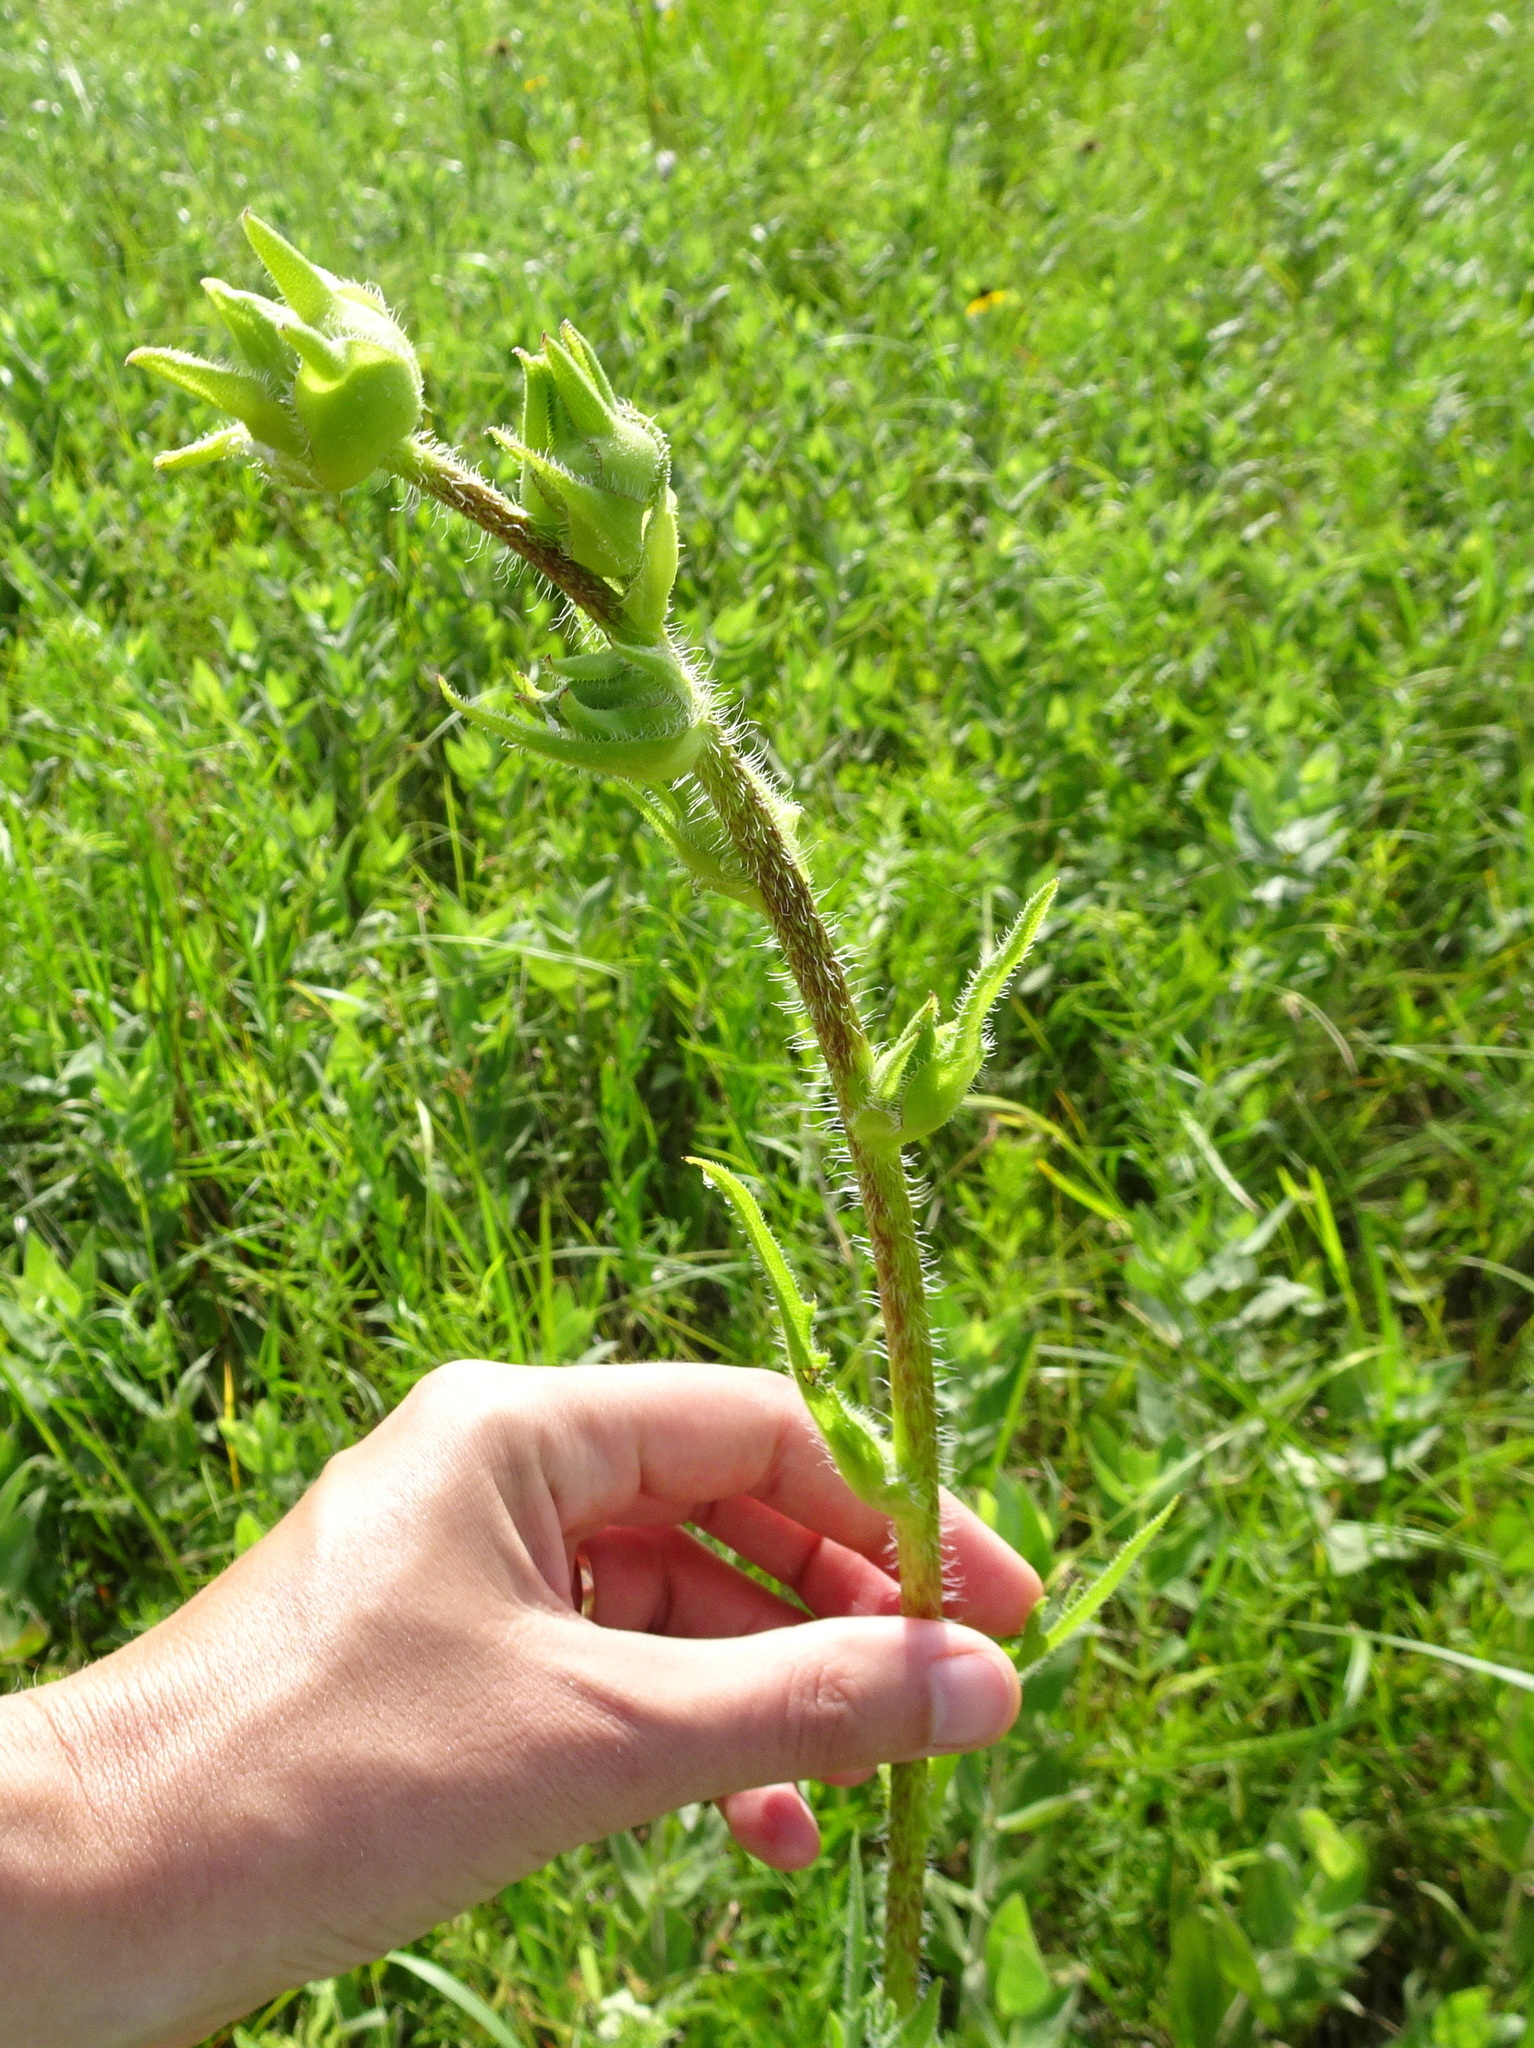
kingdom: Plantae
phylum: Tracheophyta
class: Magnoliopsida
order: Asterales
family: Asteraceae
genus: Silphium
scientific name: Silphium laciniatum
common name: Polarplant
